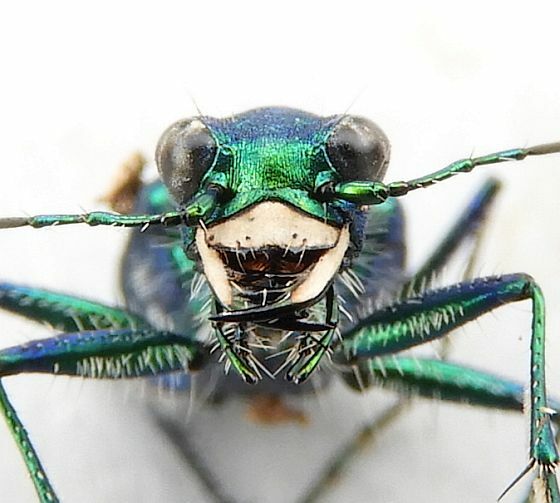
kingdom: Animalia
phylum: Arthropoda
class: Insecta
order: Coleoptera
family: Carabidae
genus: Cicindela
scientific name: Cicindela sexguttata
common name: Six-spotted tiger beetle
